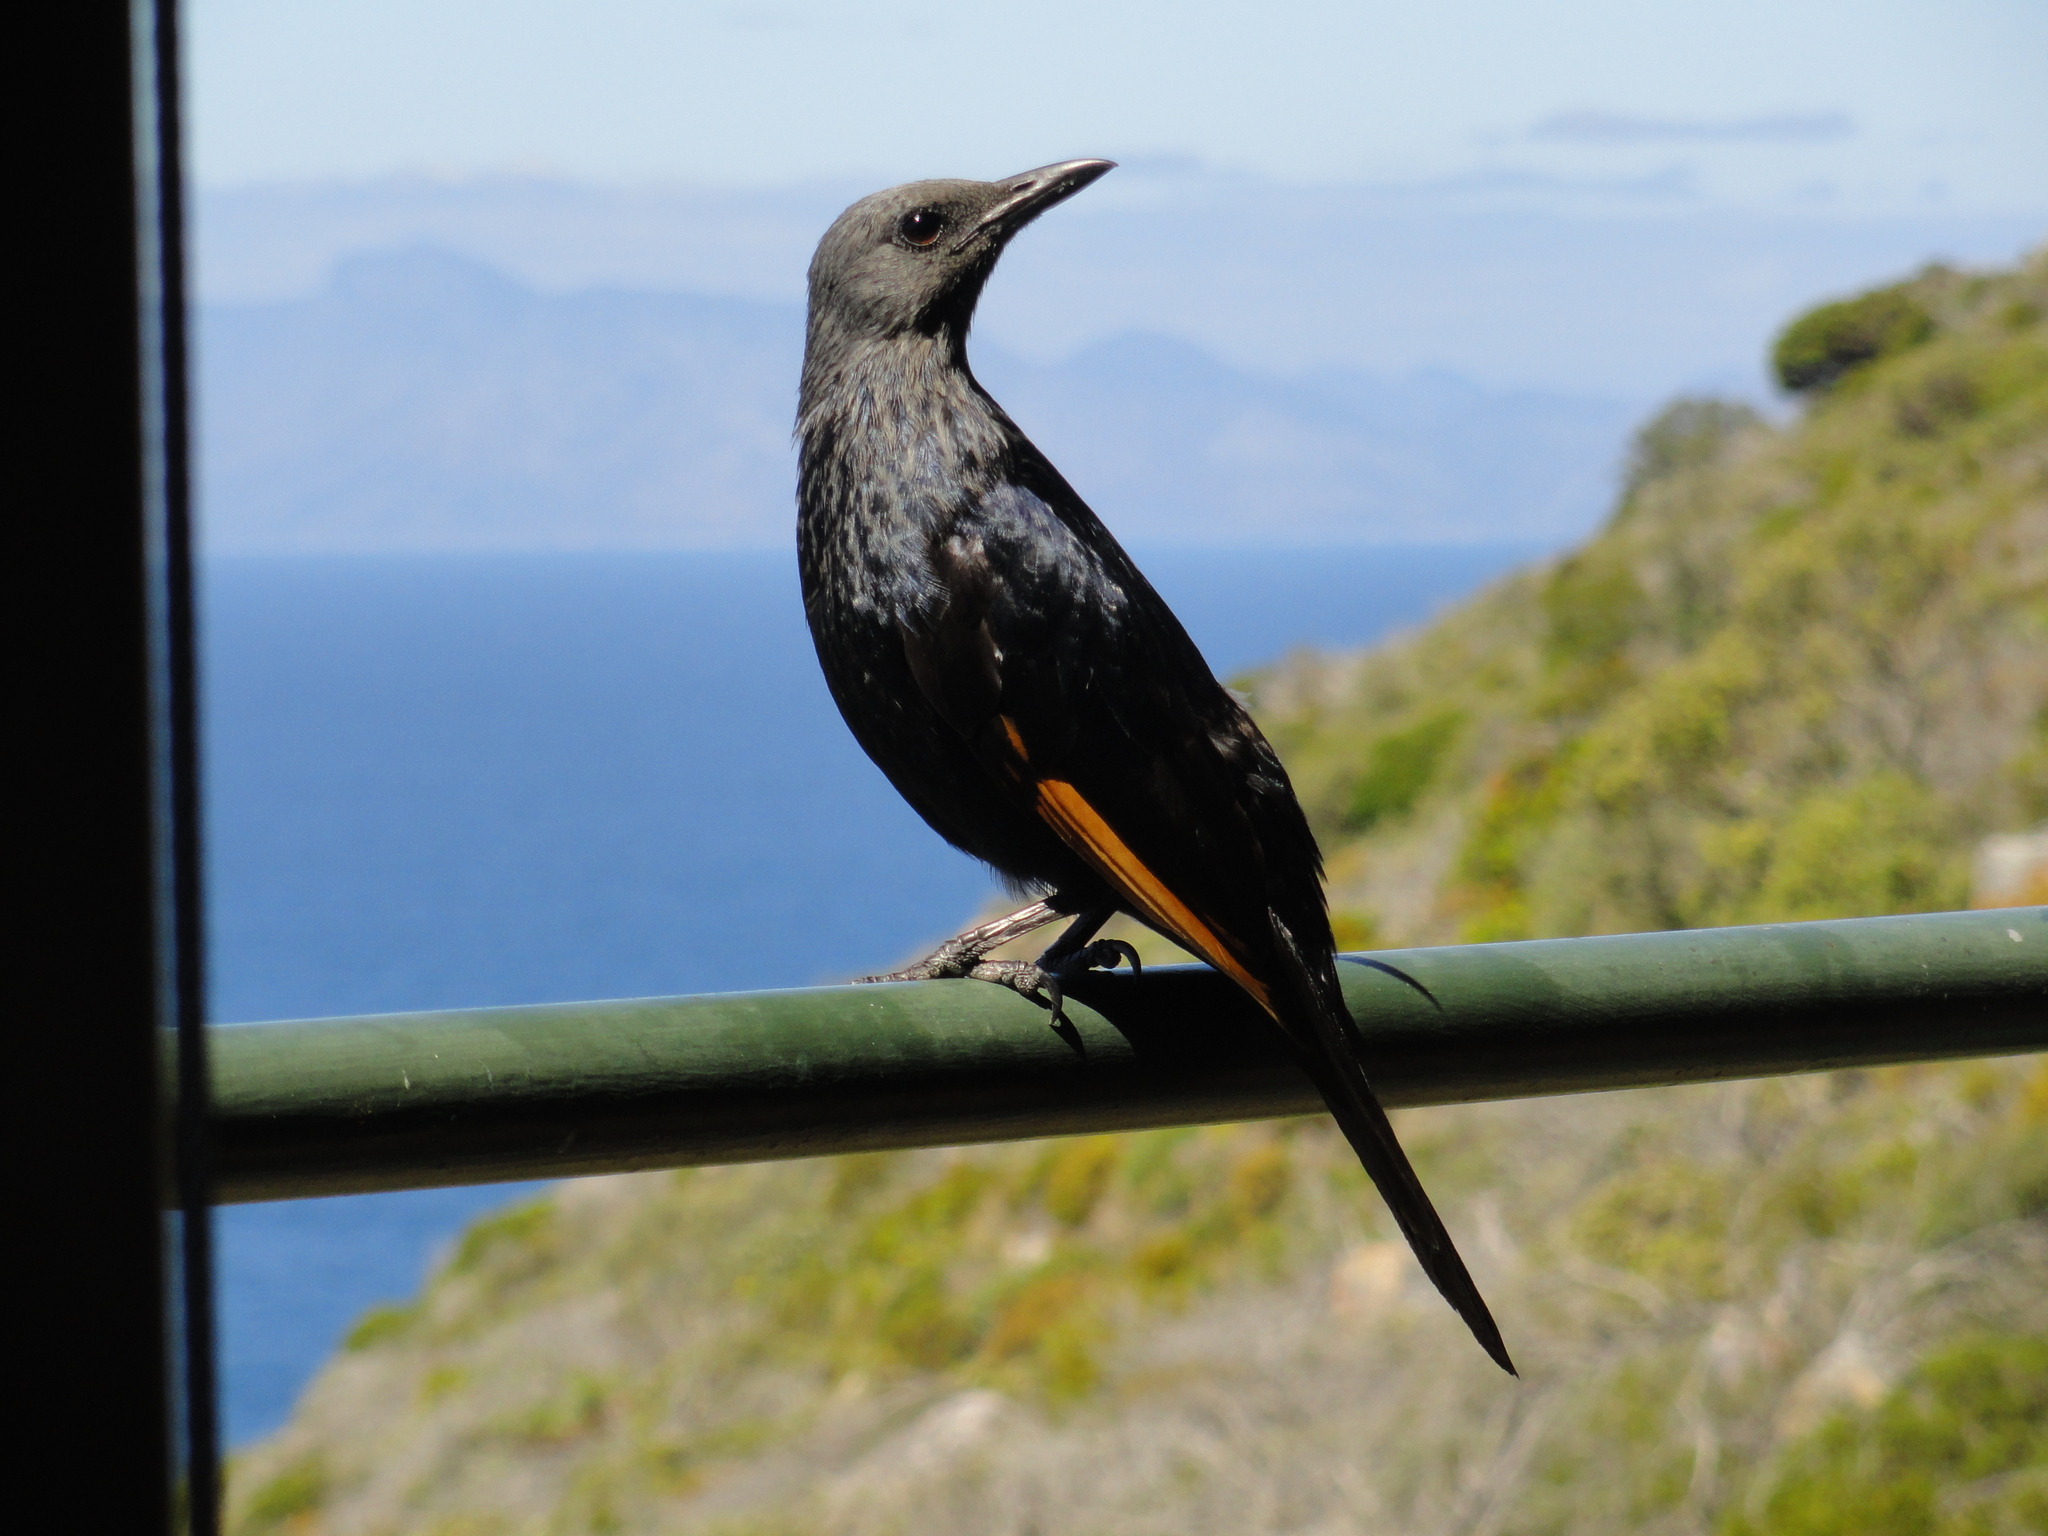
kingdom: Animalia
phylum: Chordata
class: Aves
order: Passeriformes
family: Sturnidae
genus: Onychognathus
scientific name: Onychognathus morio
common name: Red-winged starling
